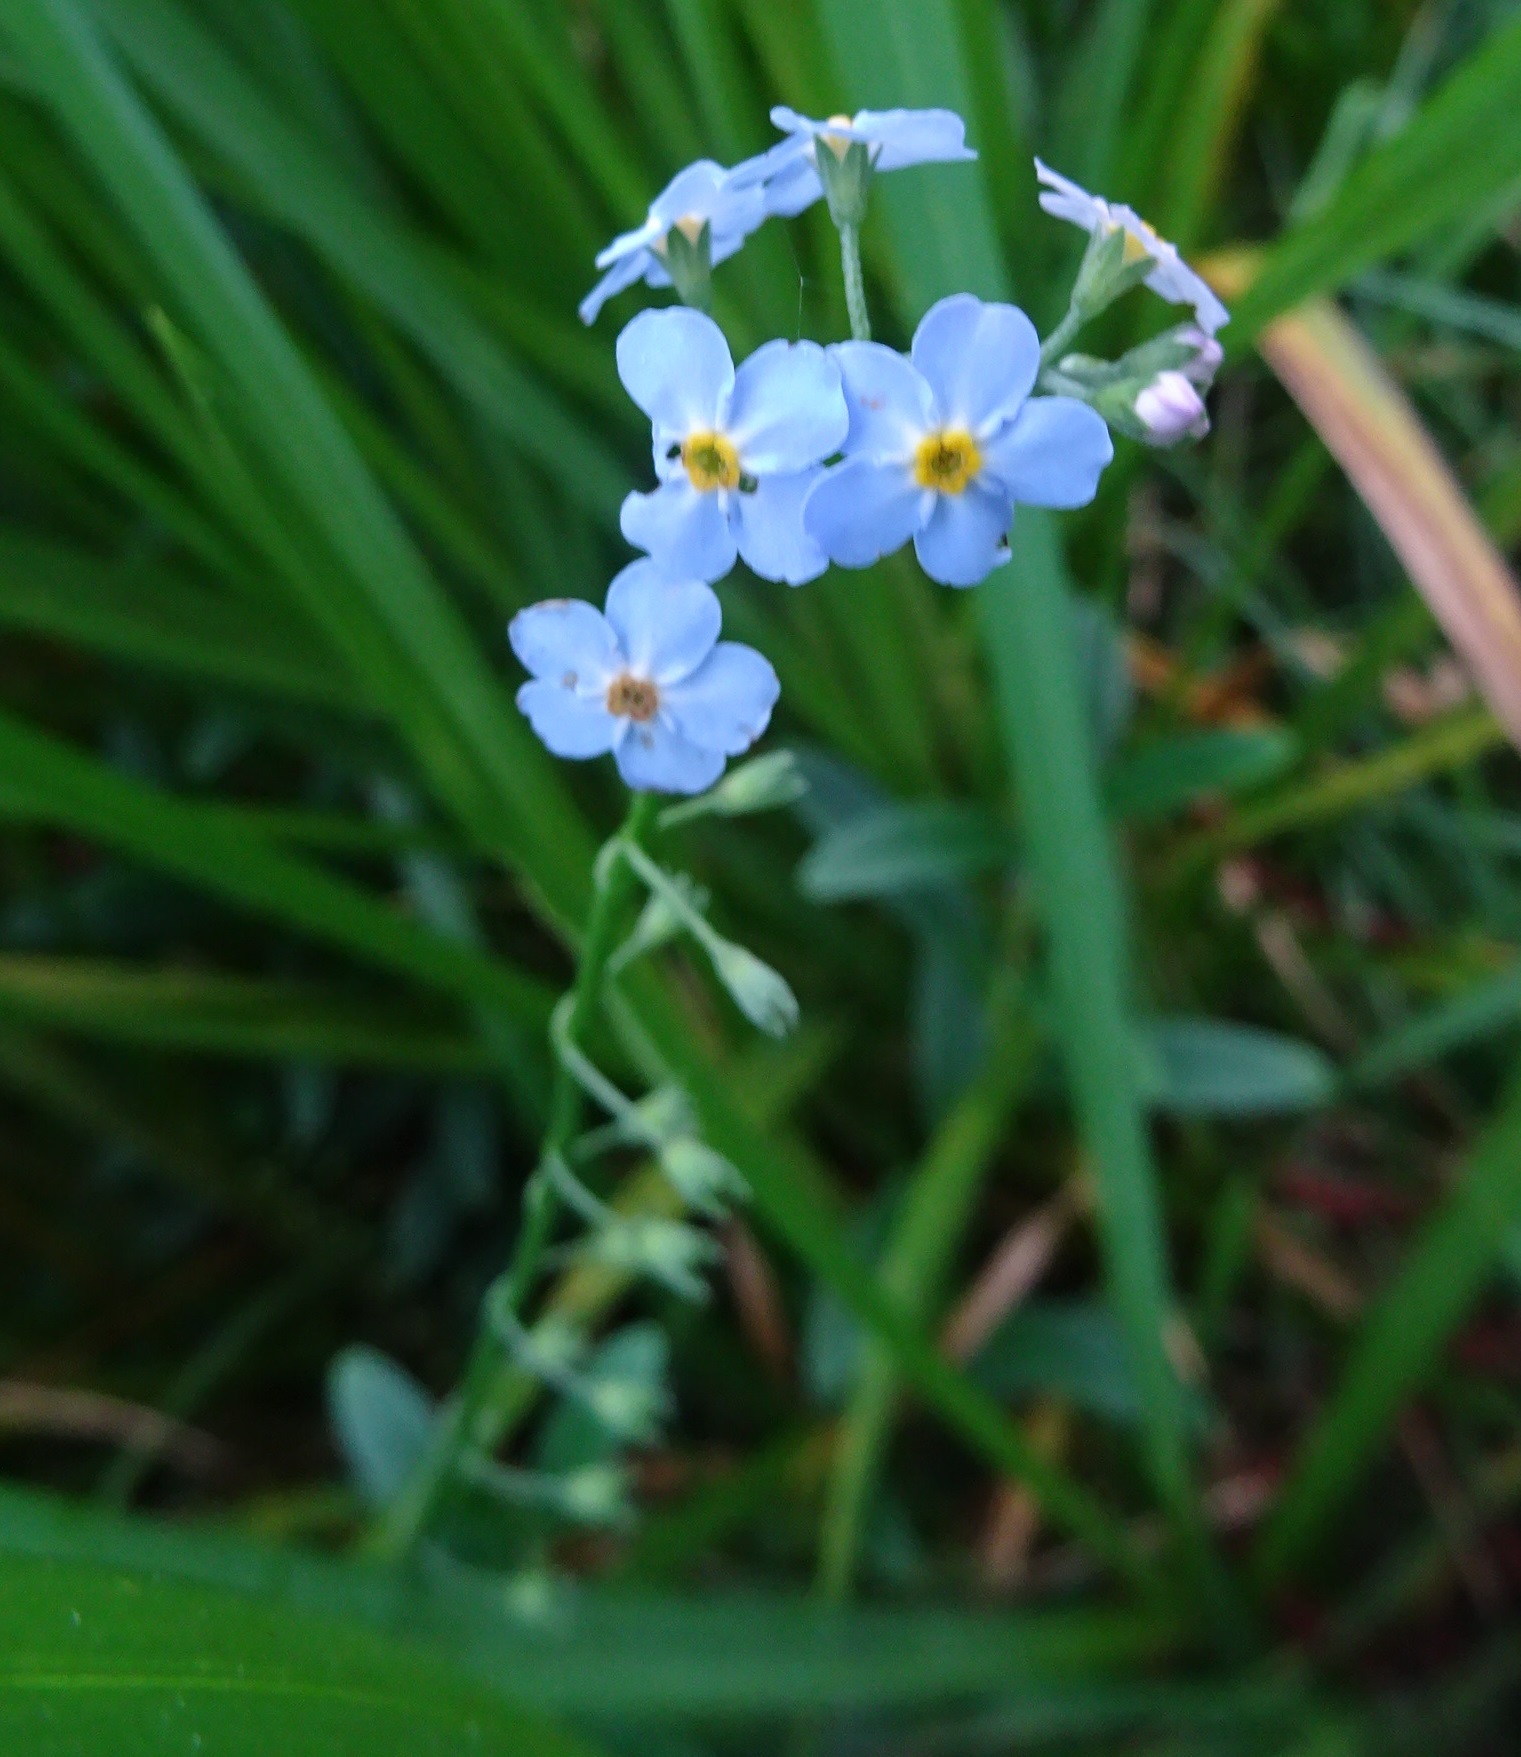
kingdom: Plantae
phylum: Tracheophyta
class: Magnoliopsida
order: Boraginales
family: Boraginaceae
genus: Myosotis
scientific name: Myosotis scorpioides
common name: Water forget-me-not
